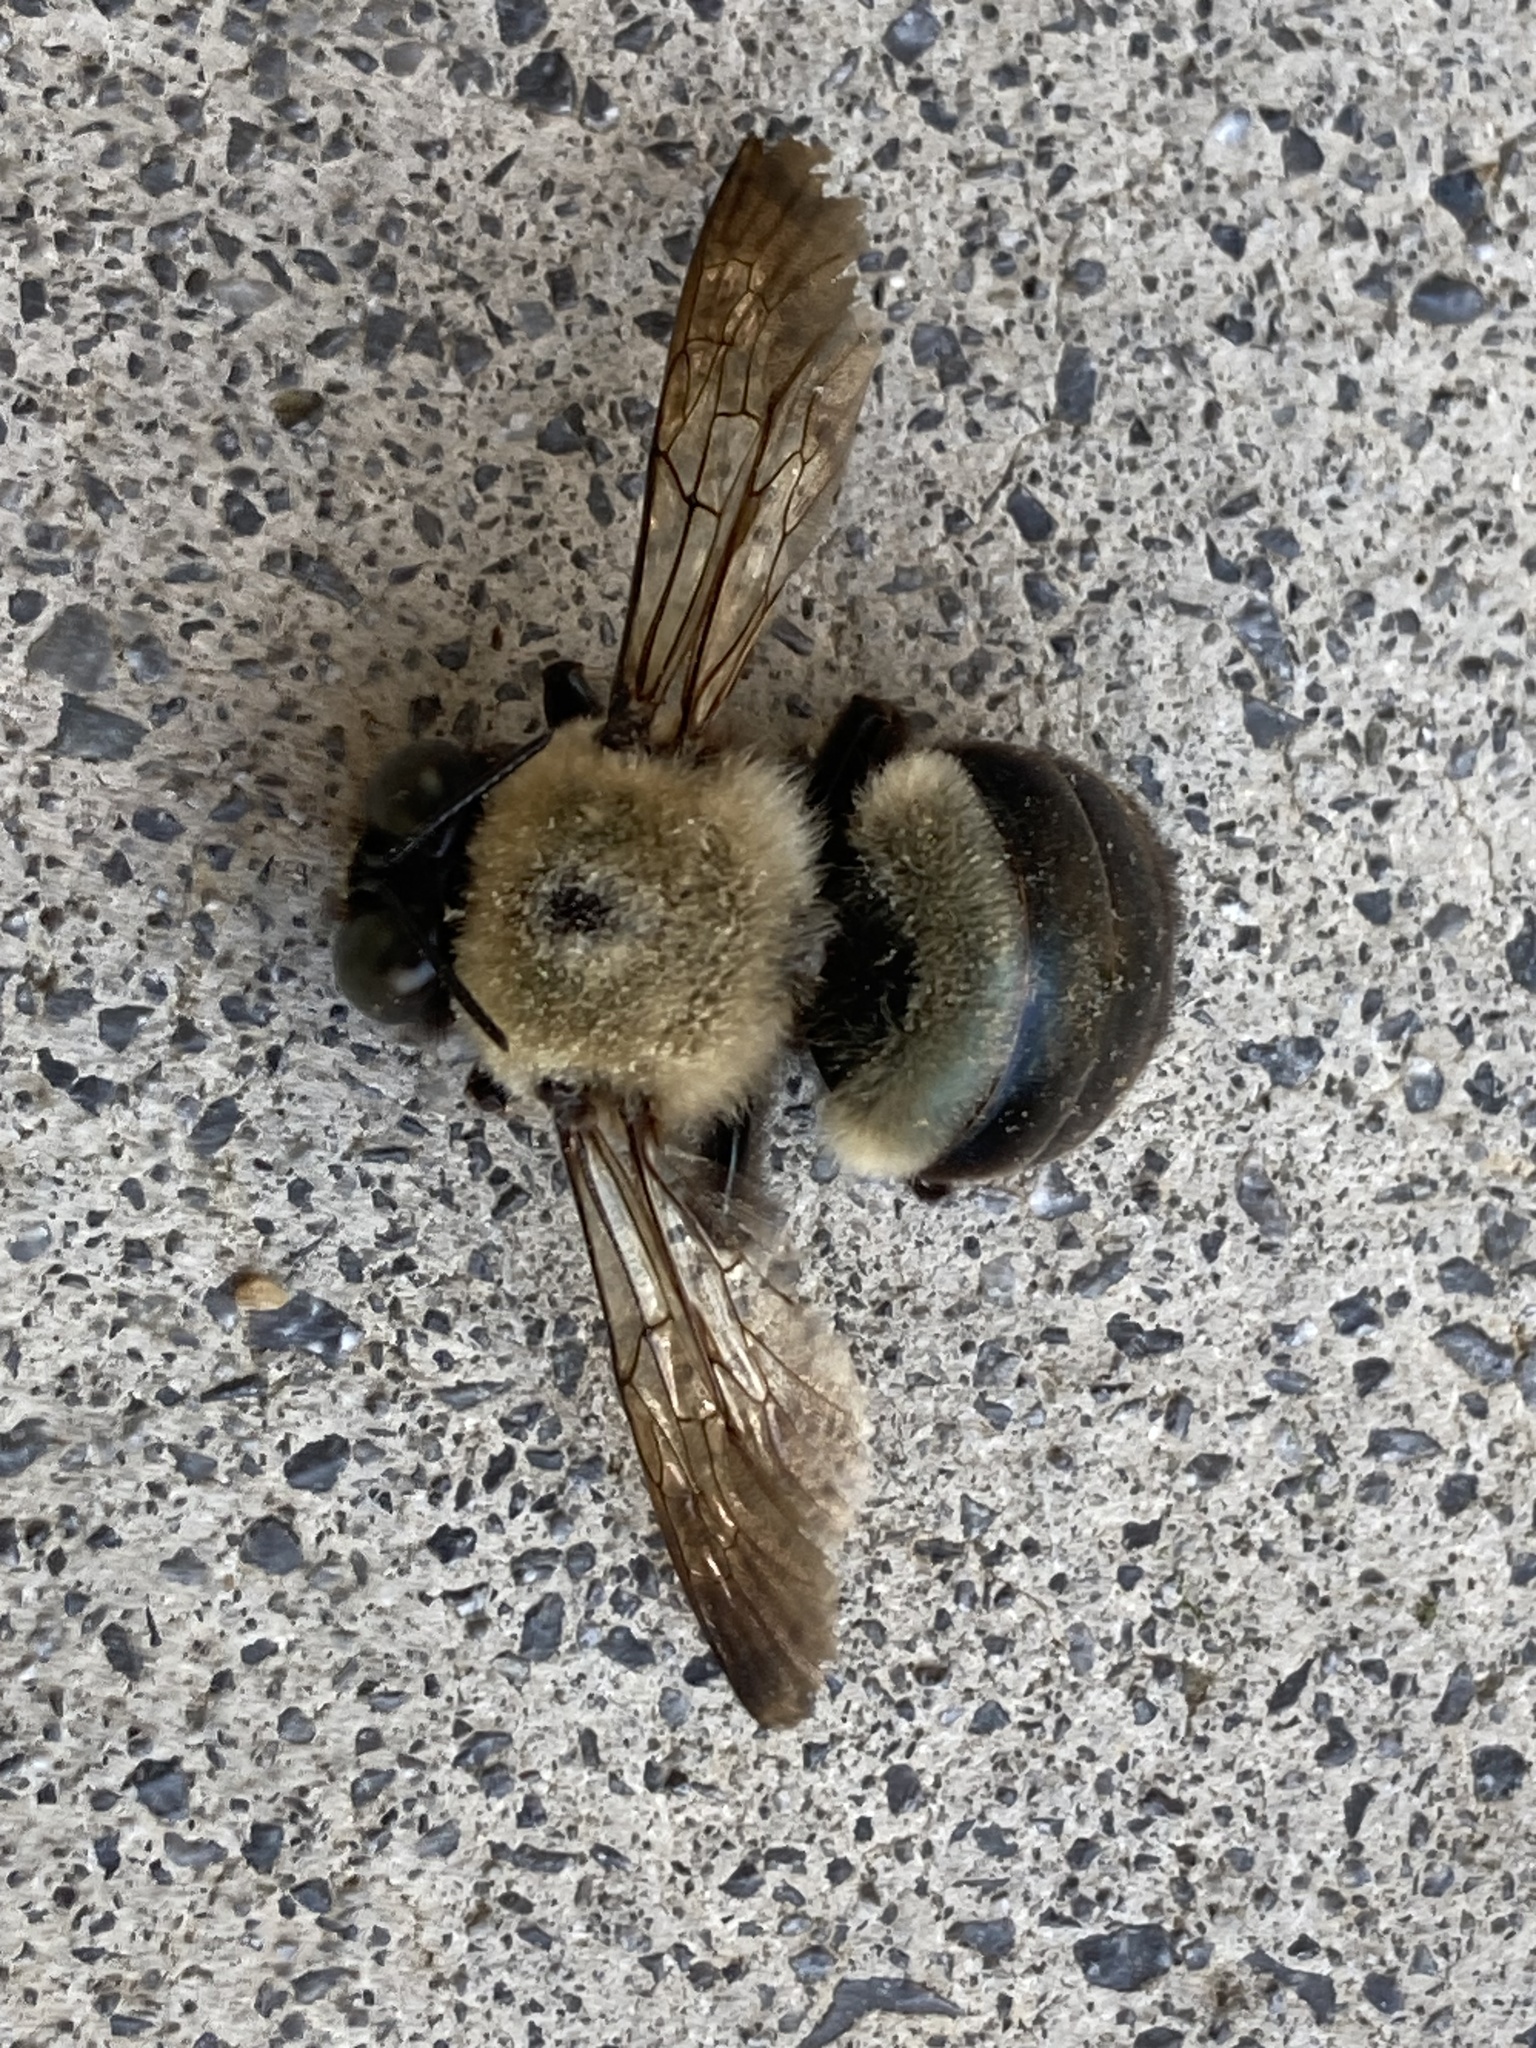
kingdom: Animalia
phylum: Arthropoda
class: Insecta
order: Hymenoptera
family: Apidae
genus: Xylocopa
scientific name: Xylocopa virginica
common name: Carpenter bee
